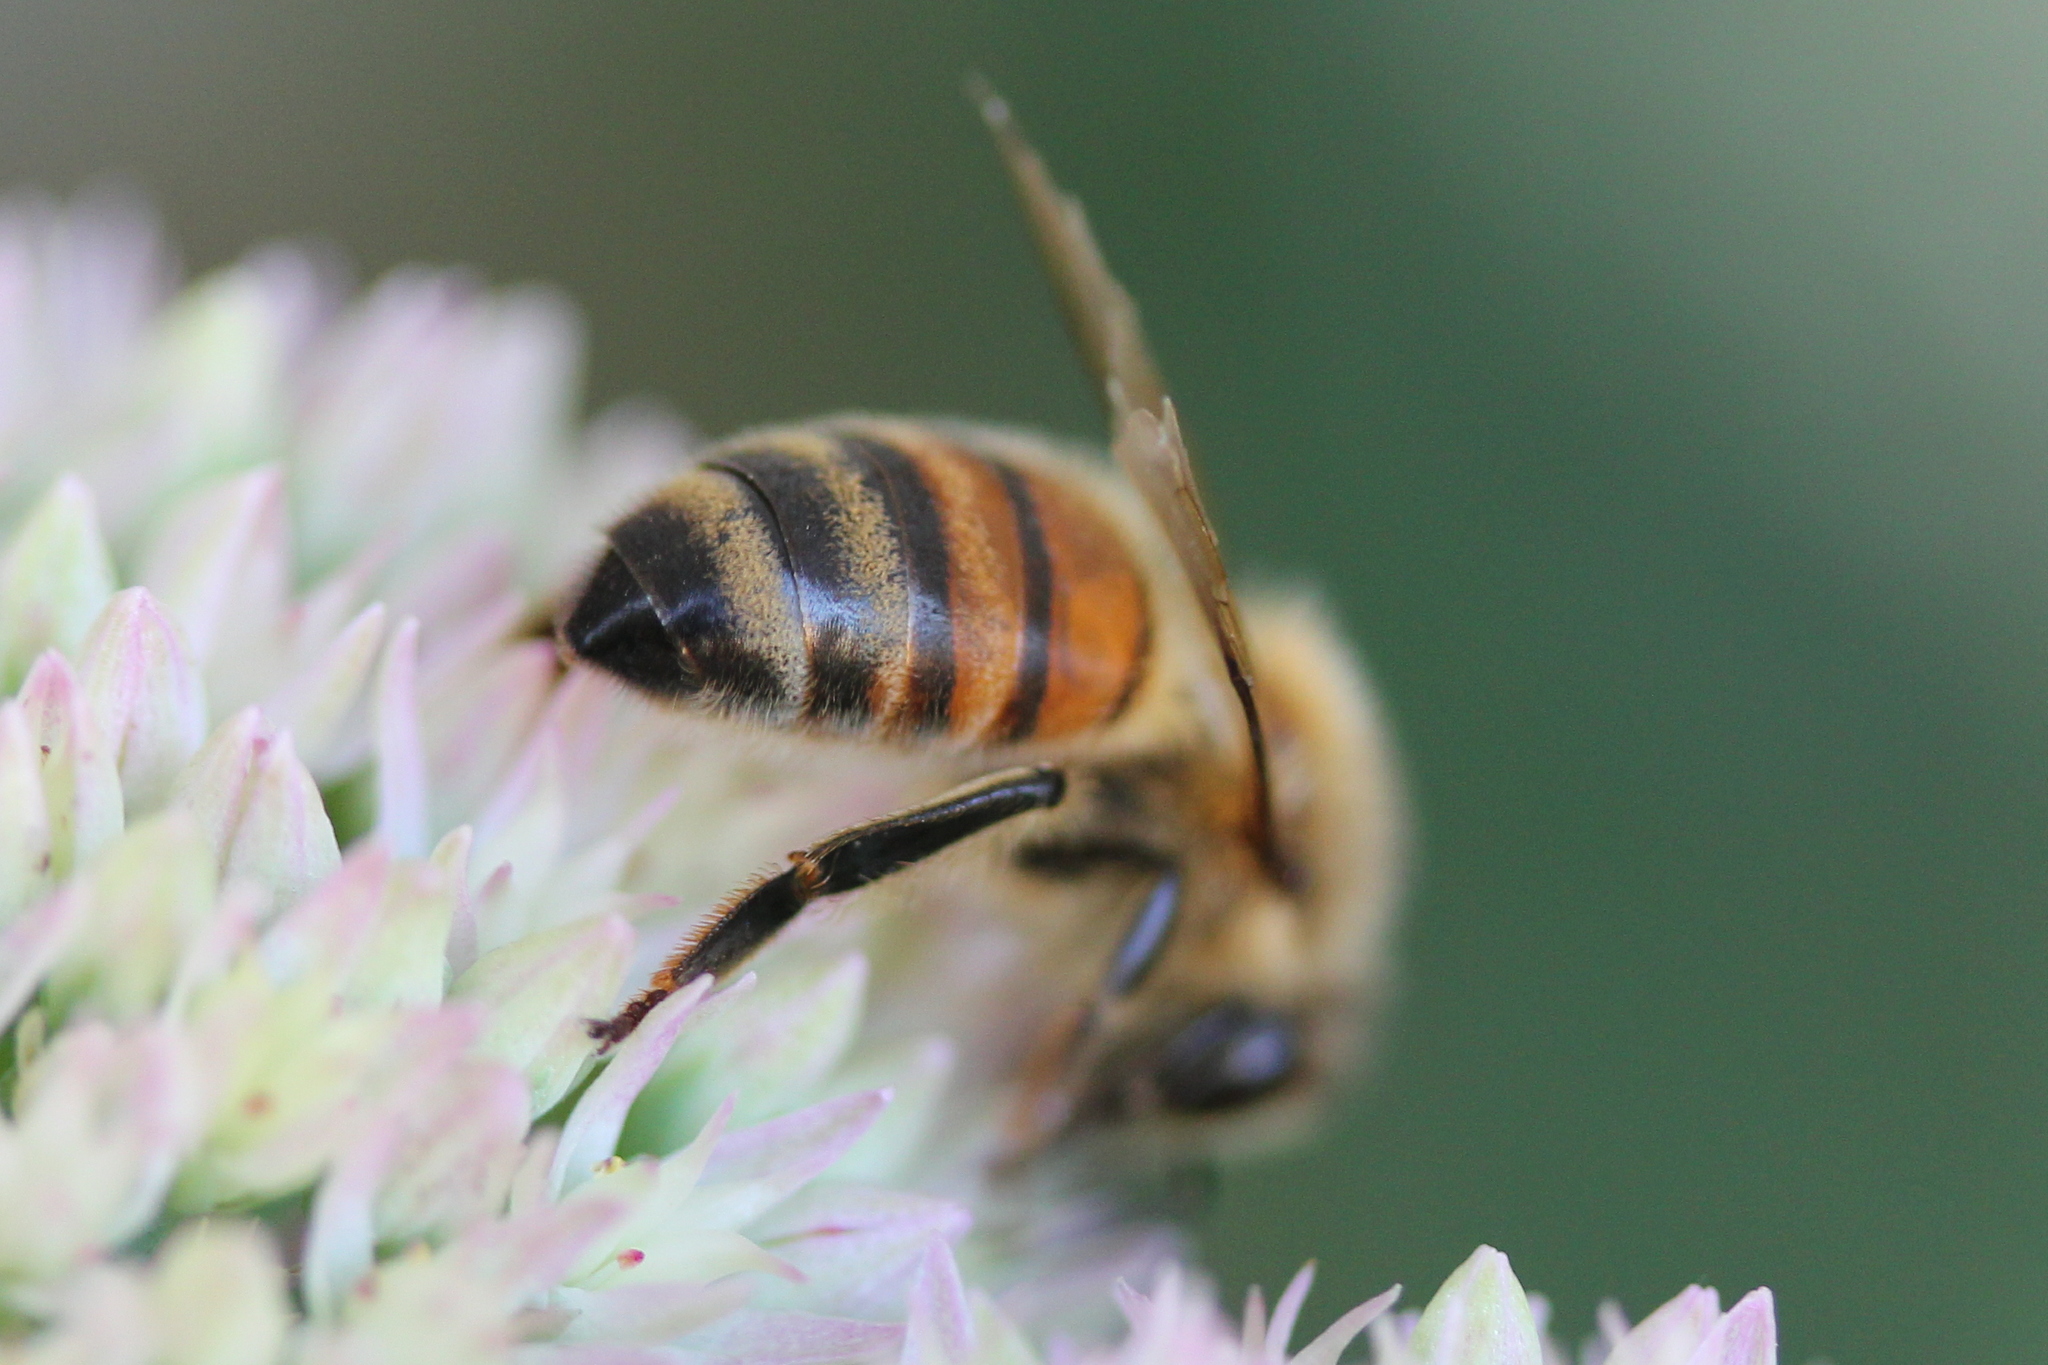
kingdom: Animalia
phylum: Arthropoda
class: Insecta
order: Hymenoptera
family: Apidae
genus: Apis
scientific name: Apis mellifera
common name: Honey bee
